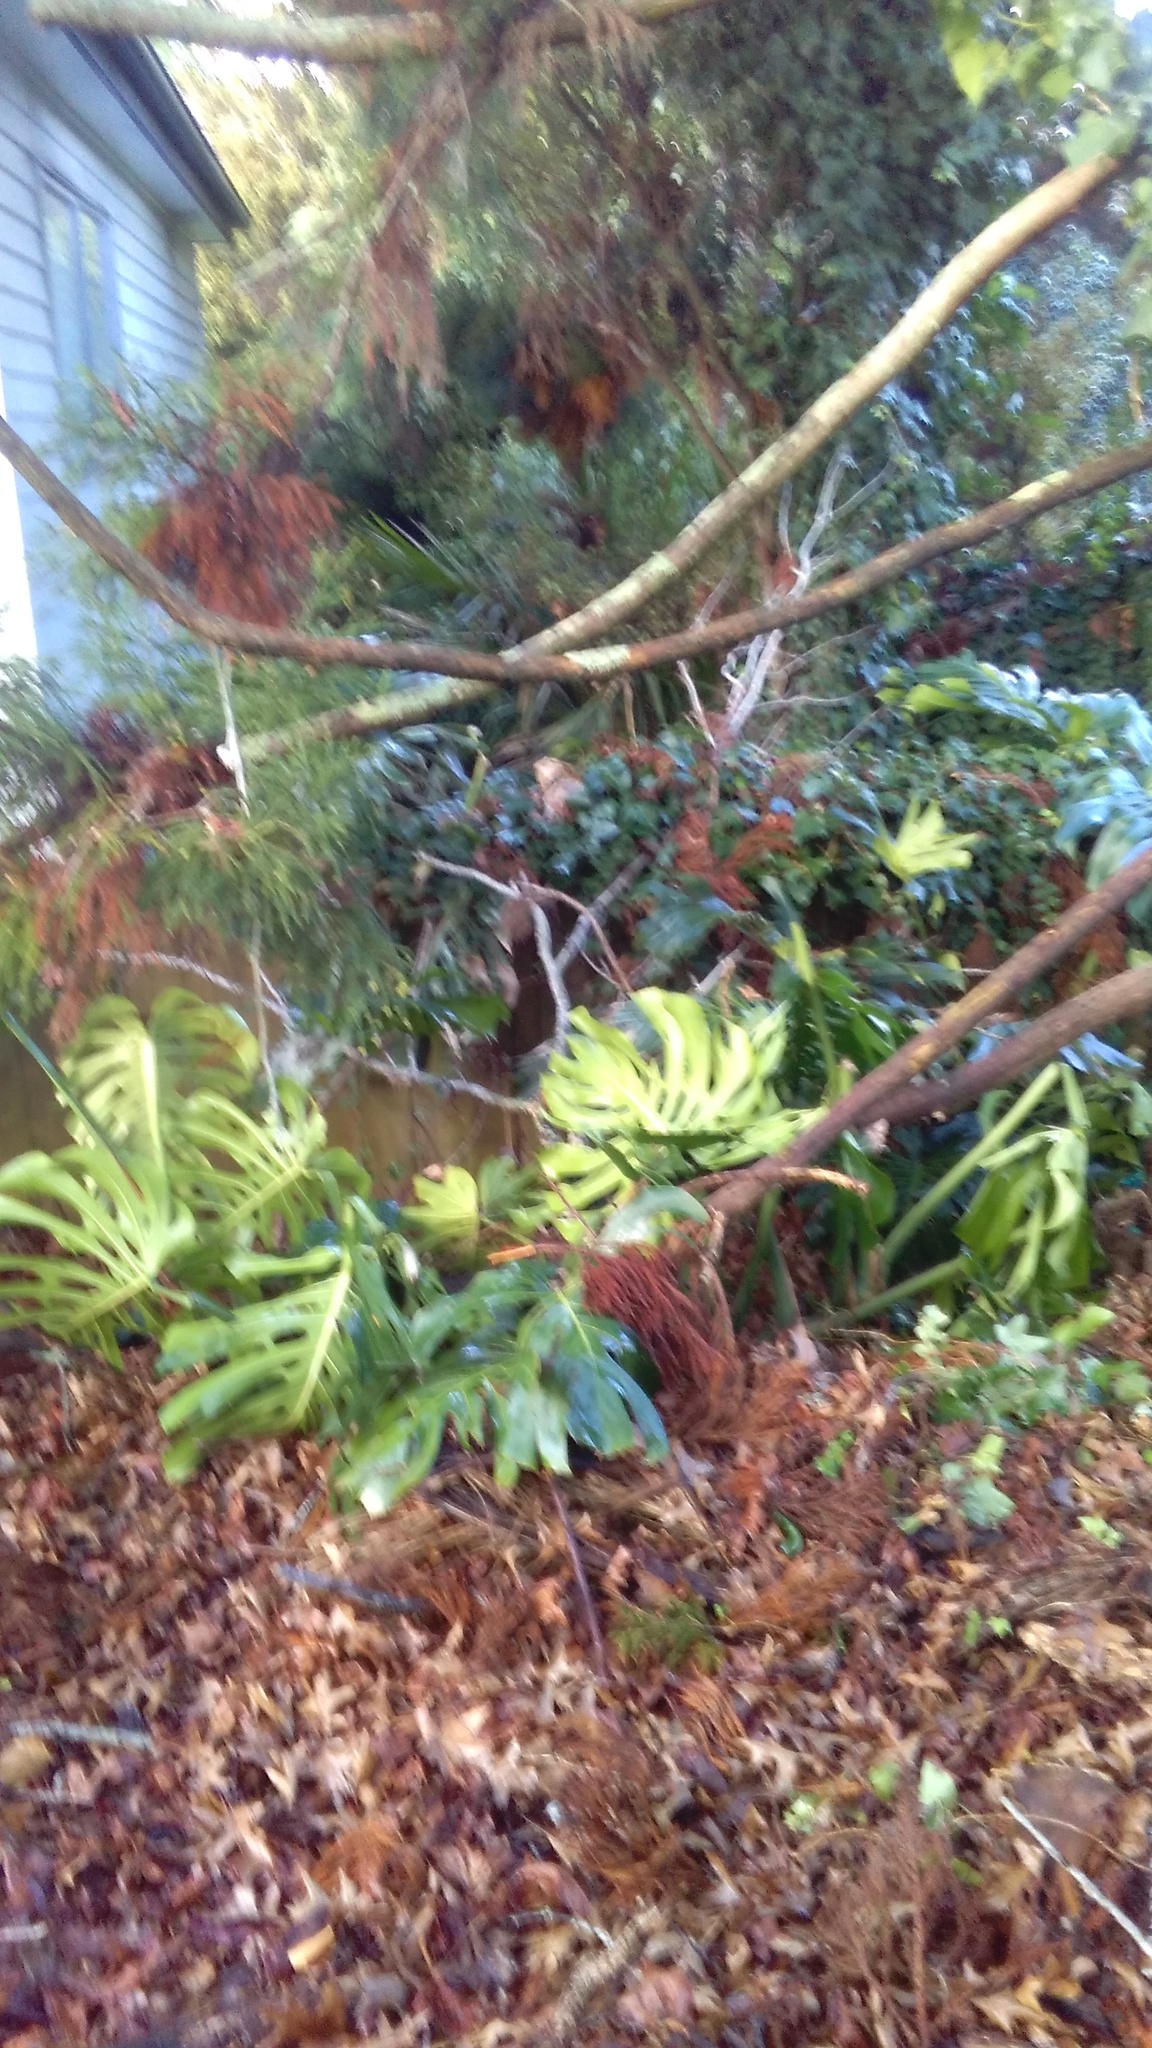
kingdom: Plantae
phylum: Tracheophyta
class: Liliopsida
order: Alismatales
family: Araceae
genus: Monstera
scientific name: Monstera deliciosa
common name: Cut-leaf-philodendron
